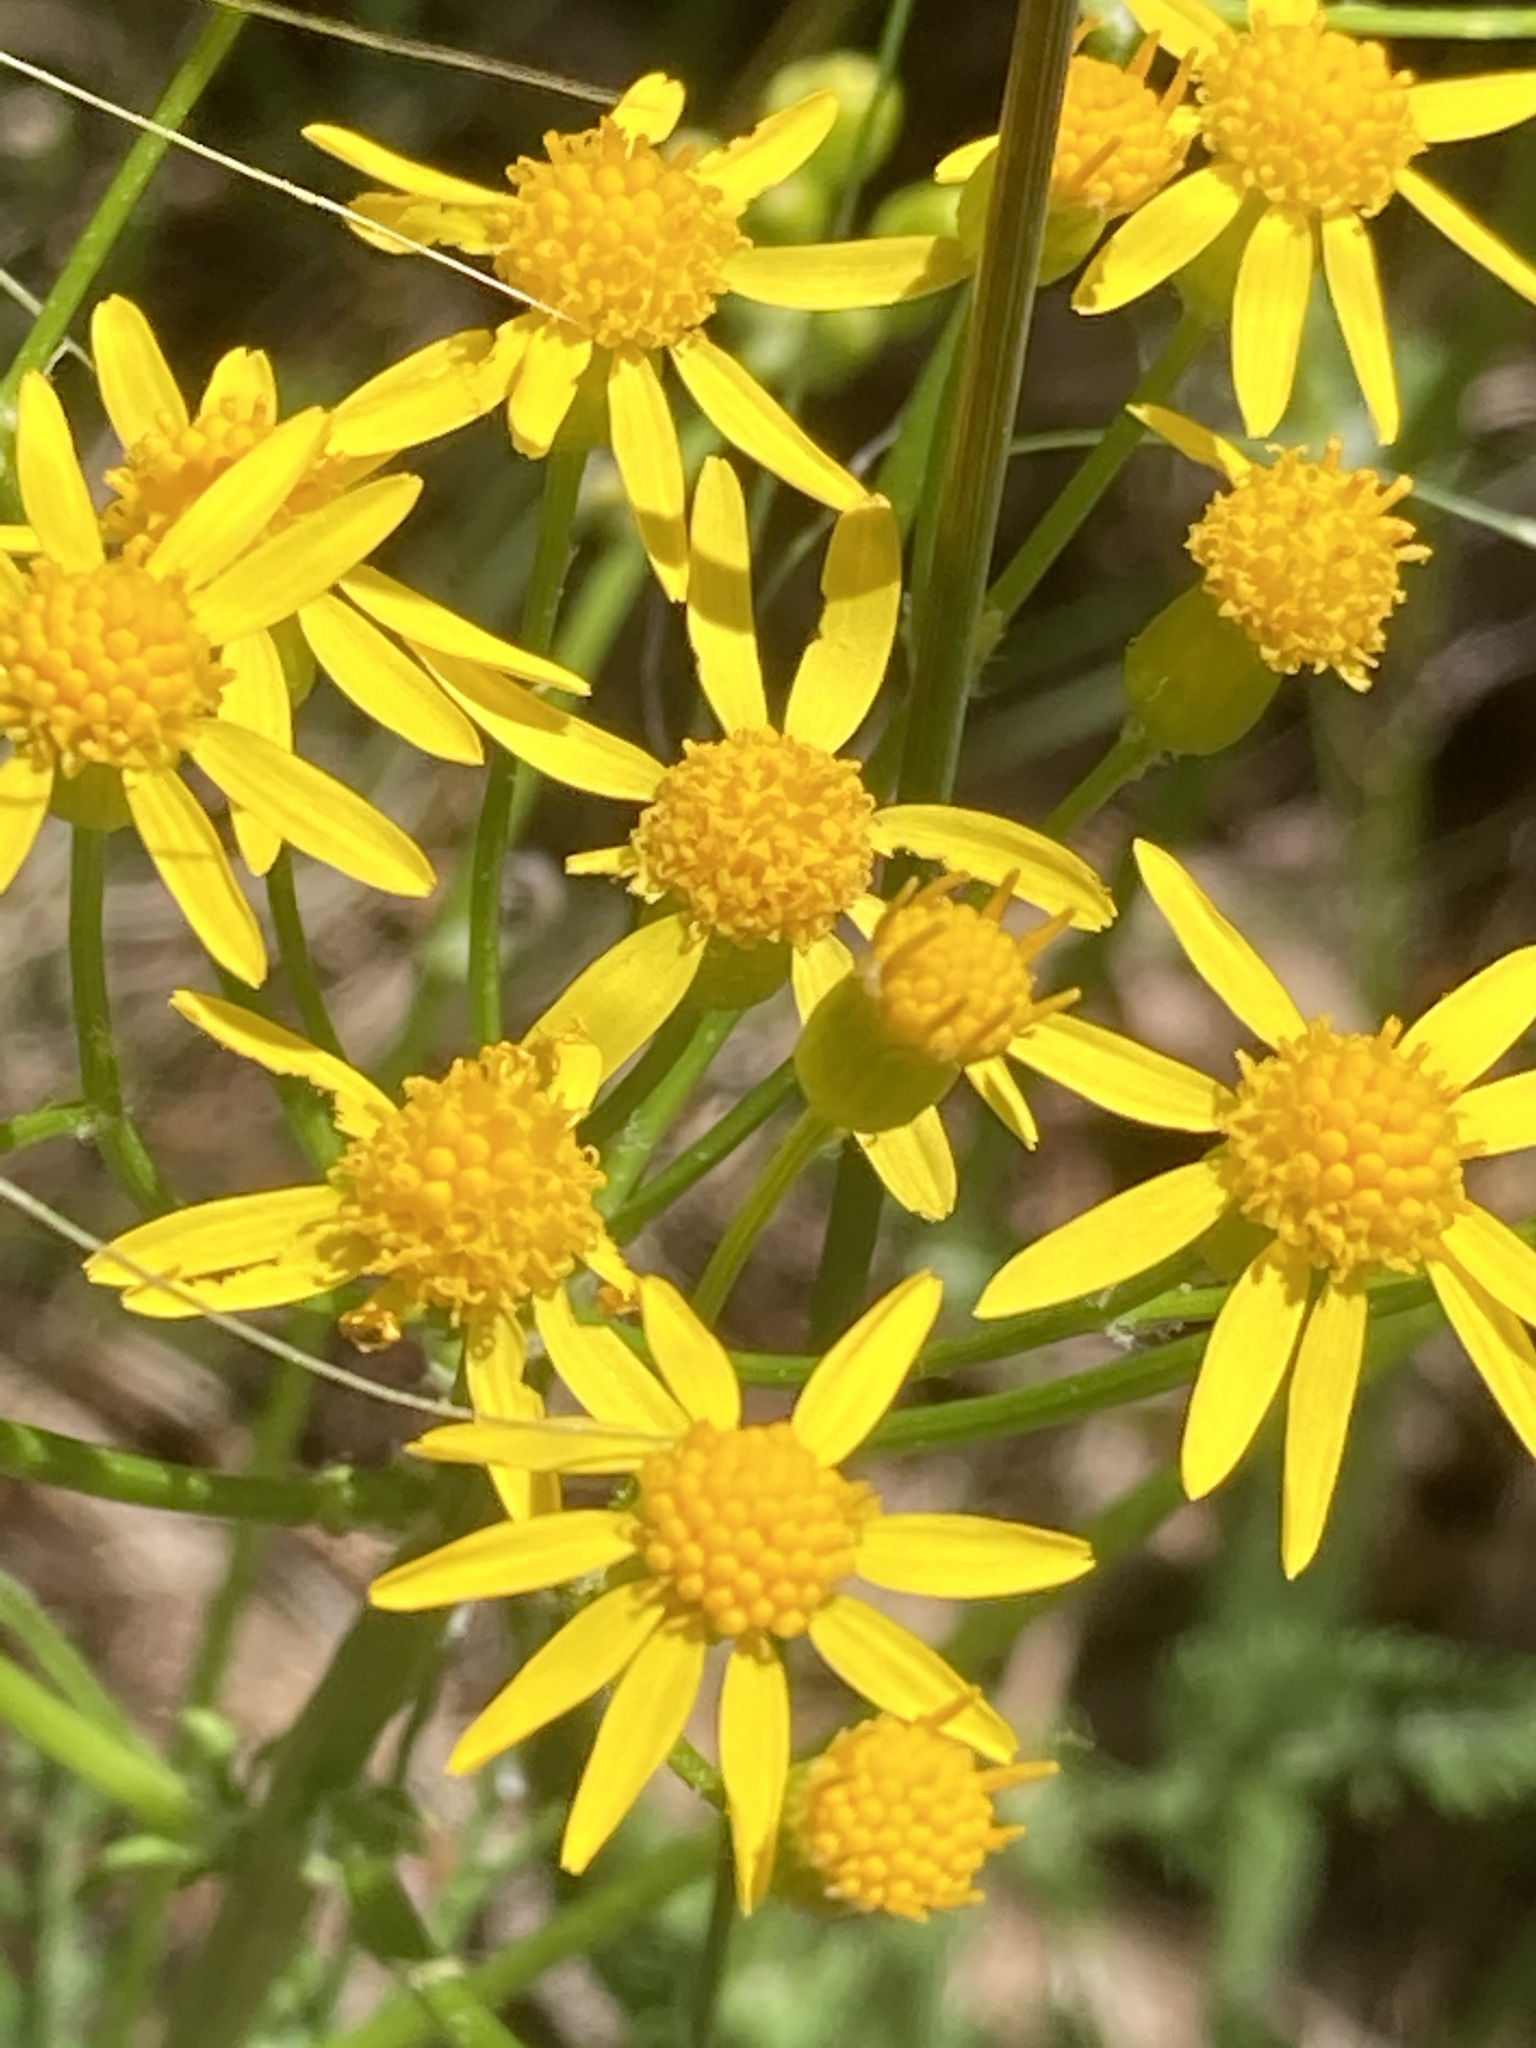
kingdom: Plantae
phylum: Tracheophyta
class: Magnoliopsida
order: Asterales
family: Asteraceae
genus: Packera
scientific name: Packera anonyma
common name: Small ragwort
